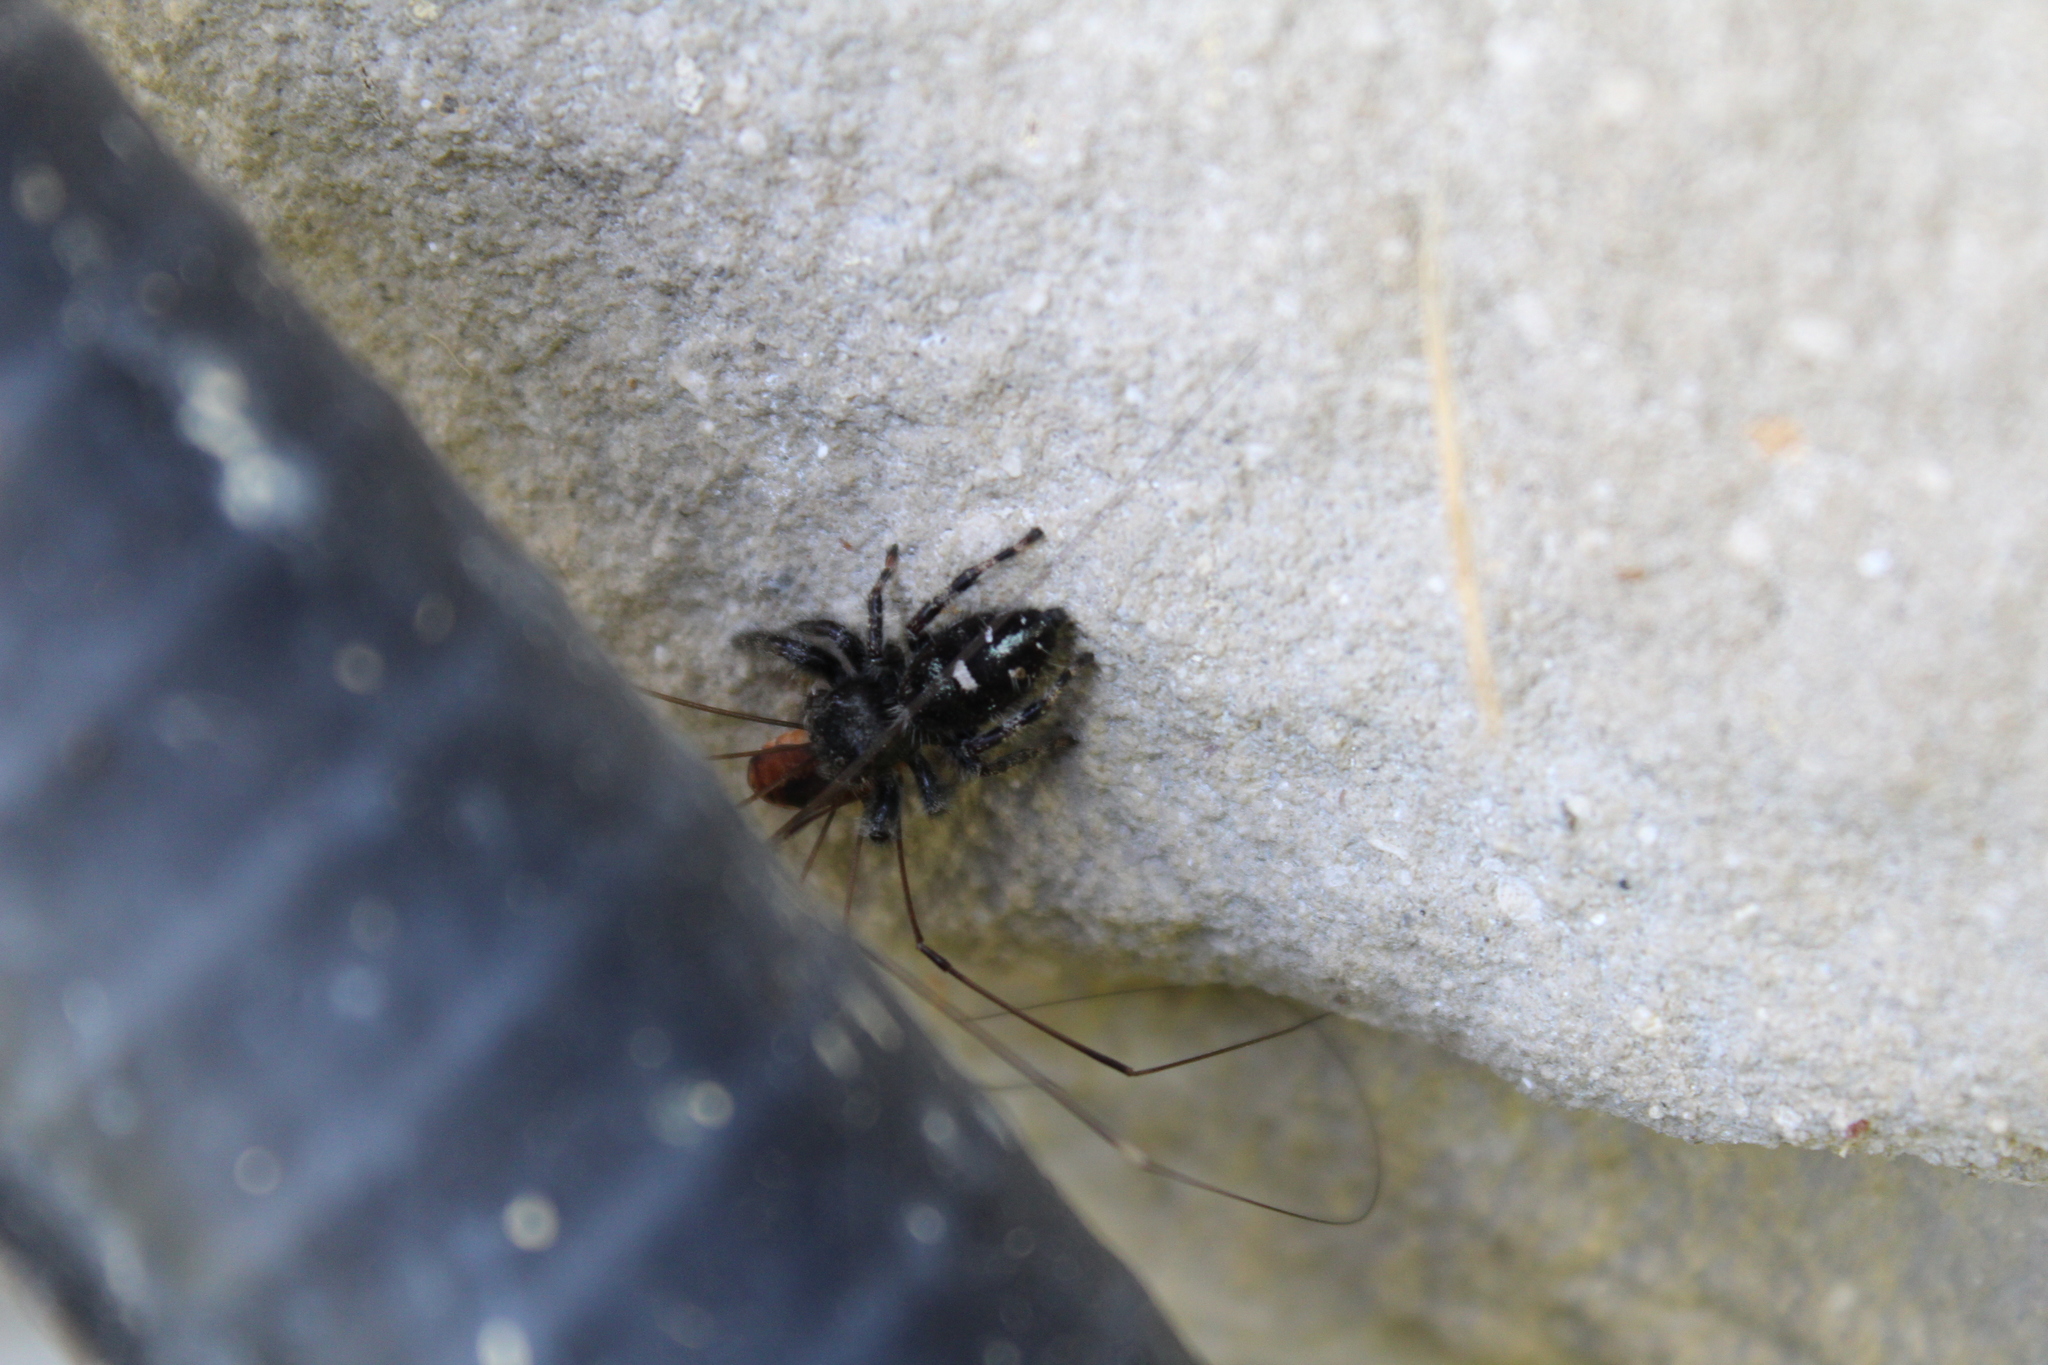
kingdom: Animalia
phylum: Arthropoda
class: Arachnida
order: Araneae
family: Salticidae
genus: Phidippus
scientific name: Phidippus audax
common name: Bold jumper
